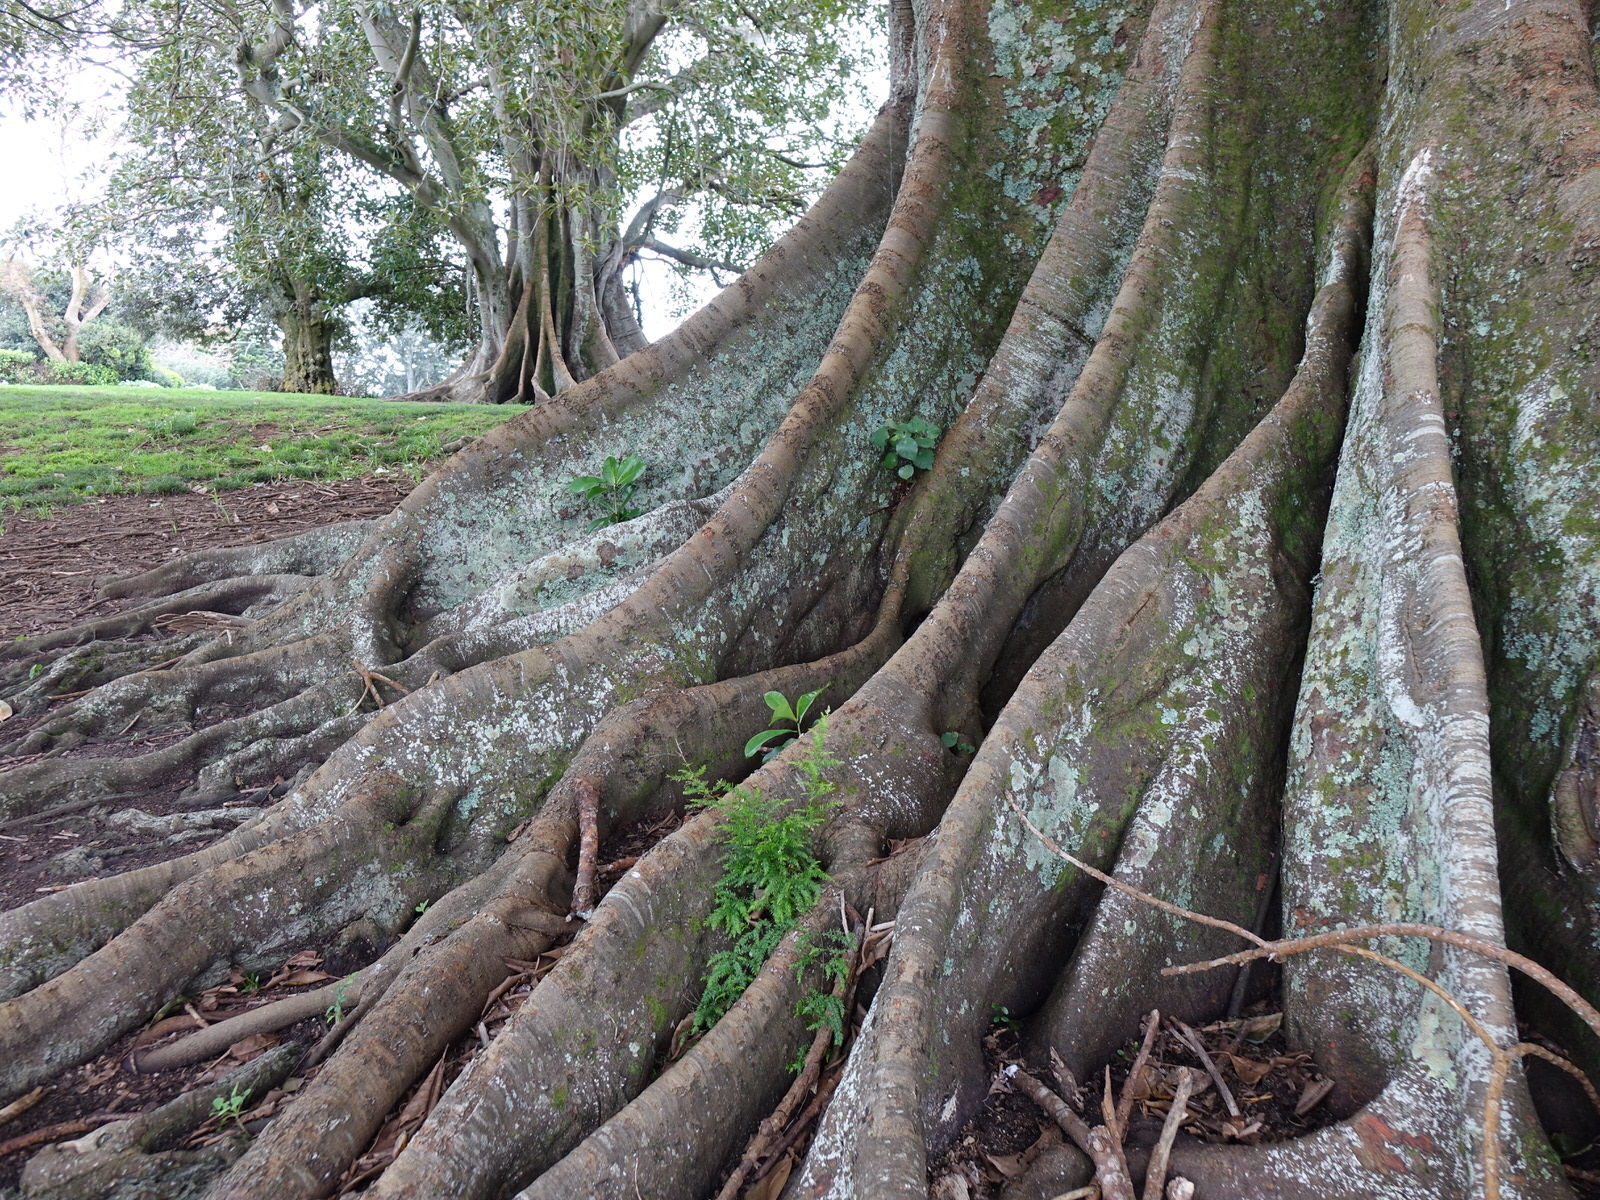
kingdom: Plantae
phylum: Tracheophyta
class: Liliopsida
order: Asparagales
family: Asparagaceae
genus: Asparagus
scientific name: Asparagus scandens
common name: Asparagus-fern
